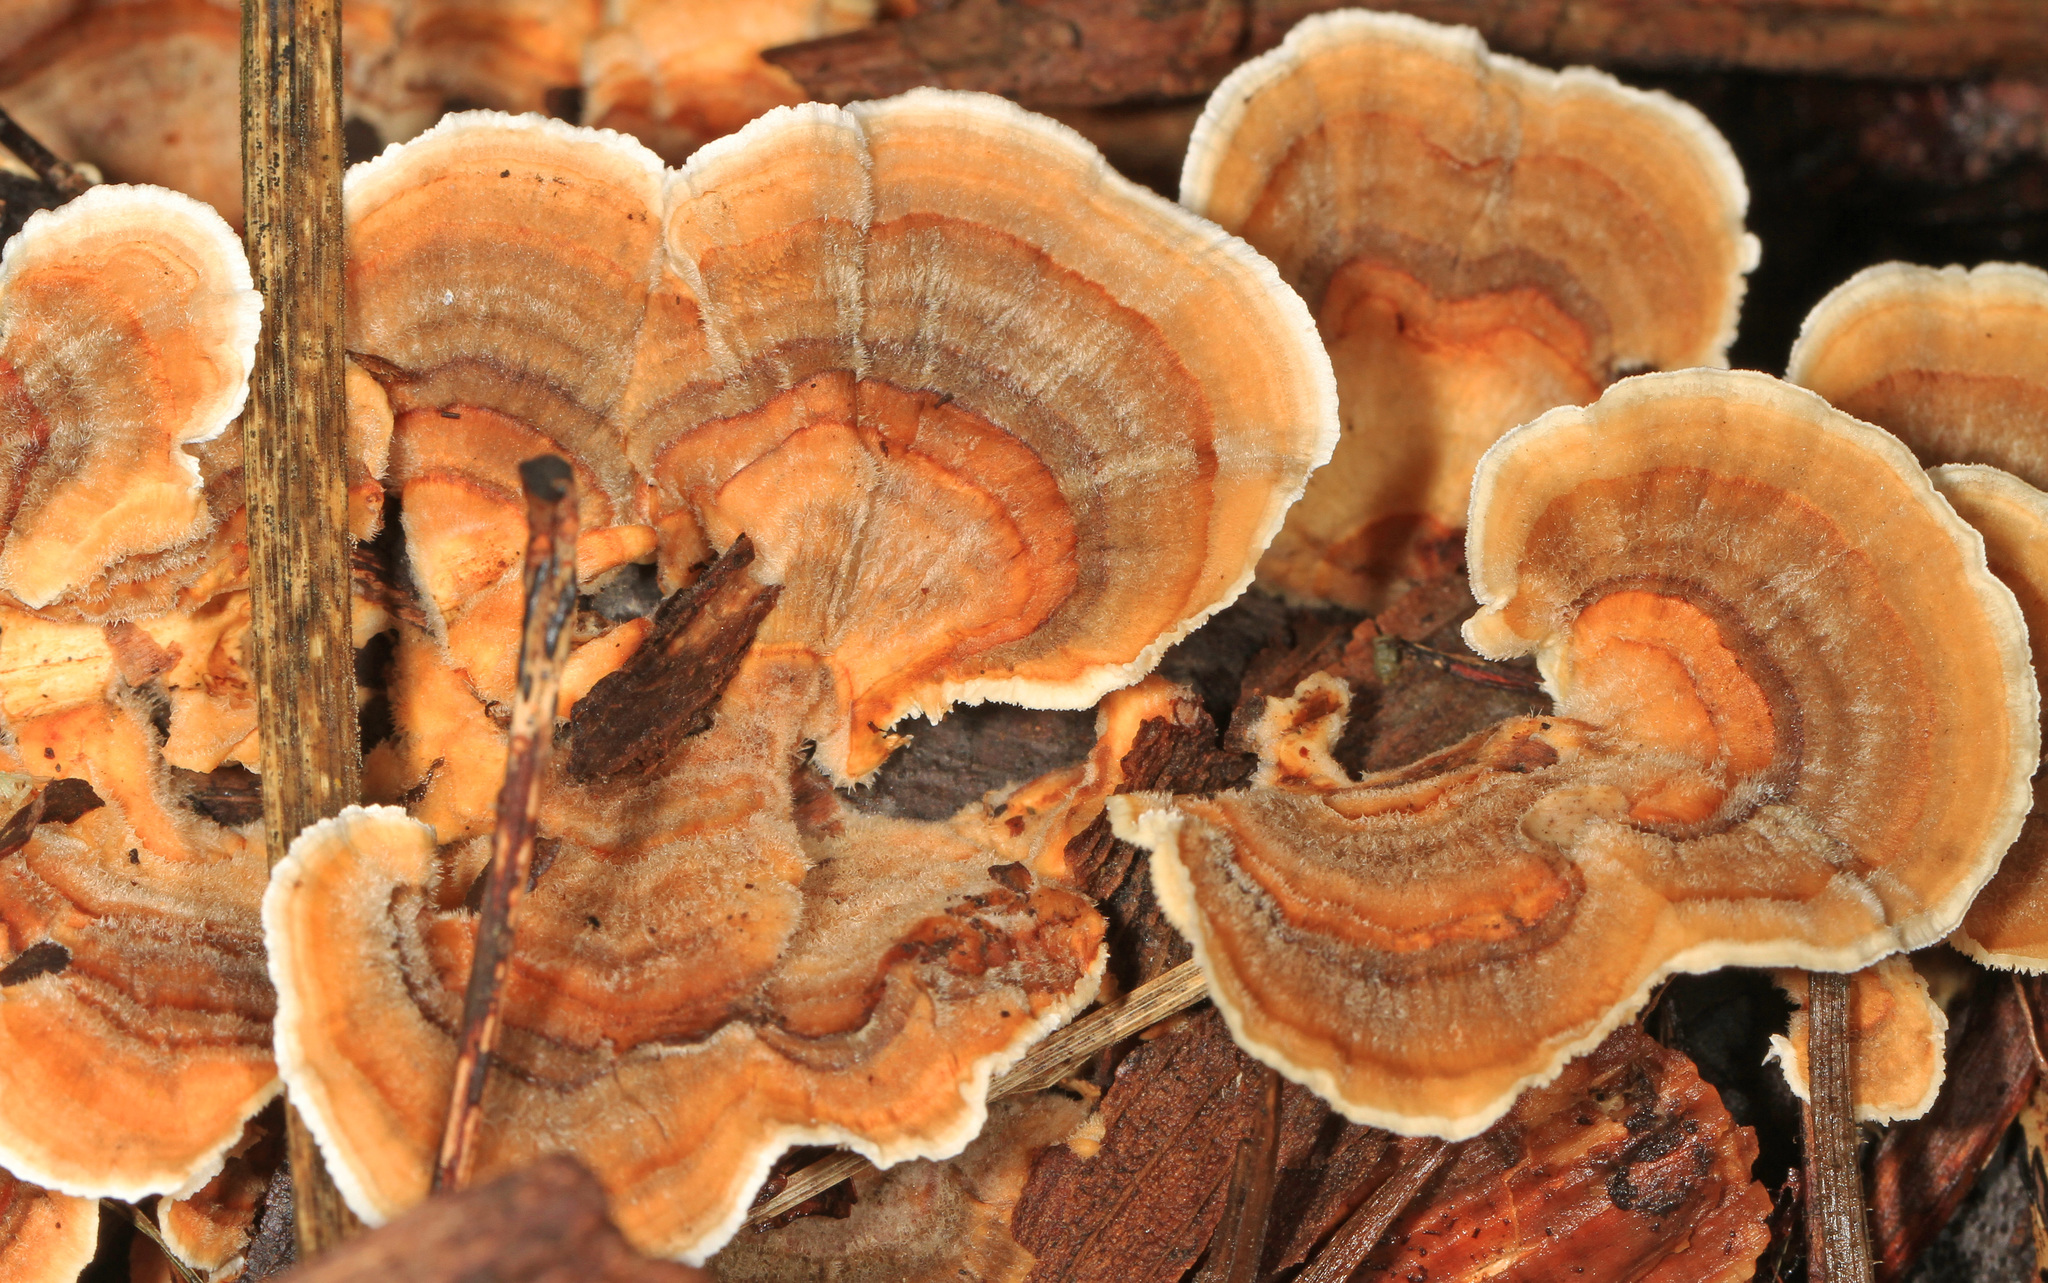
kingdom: Fungi
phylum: Basidiomycota
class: Agaricomycetes
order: Polyporales
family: Polyporaceae
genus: Trametes
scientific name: Trametes versicolor
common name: Turkeytail
